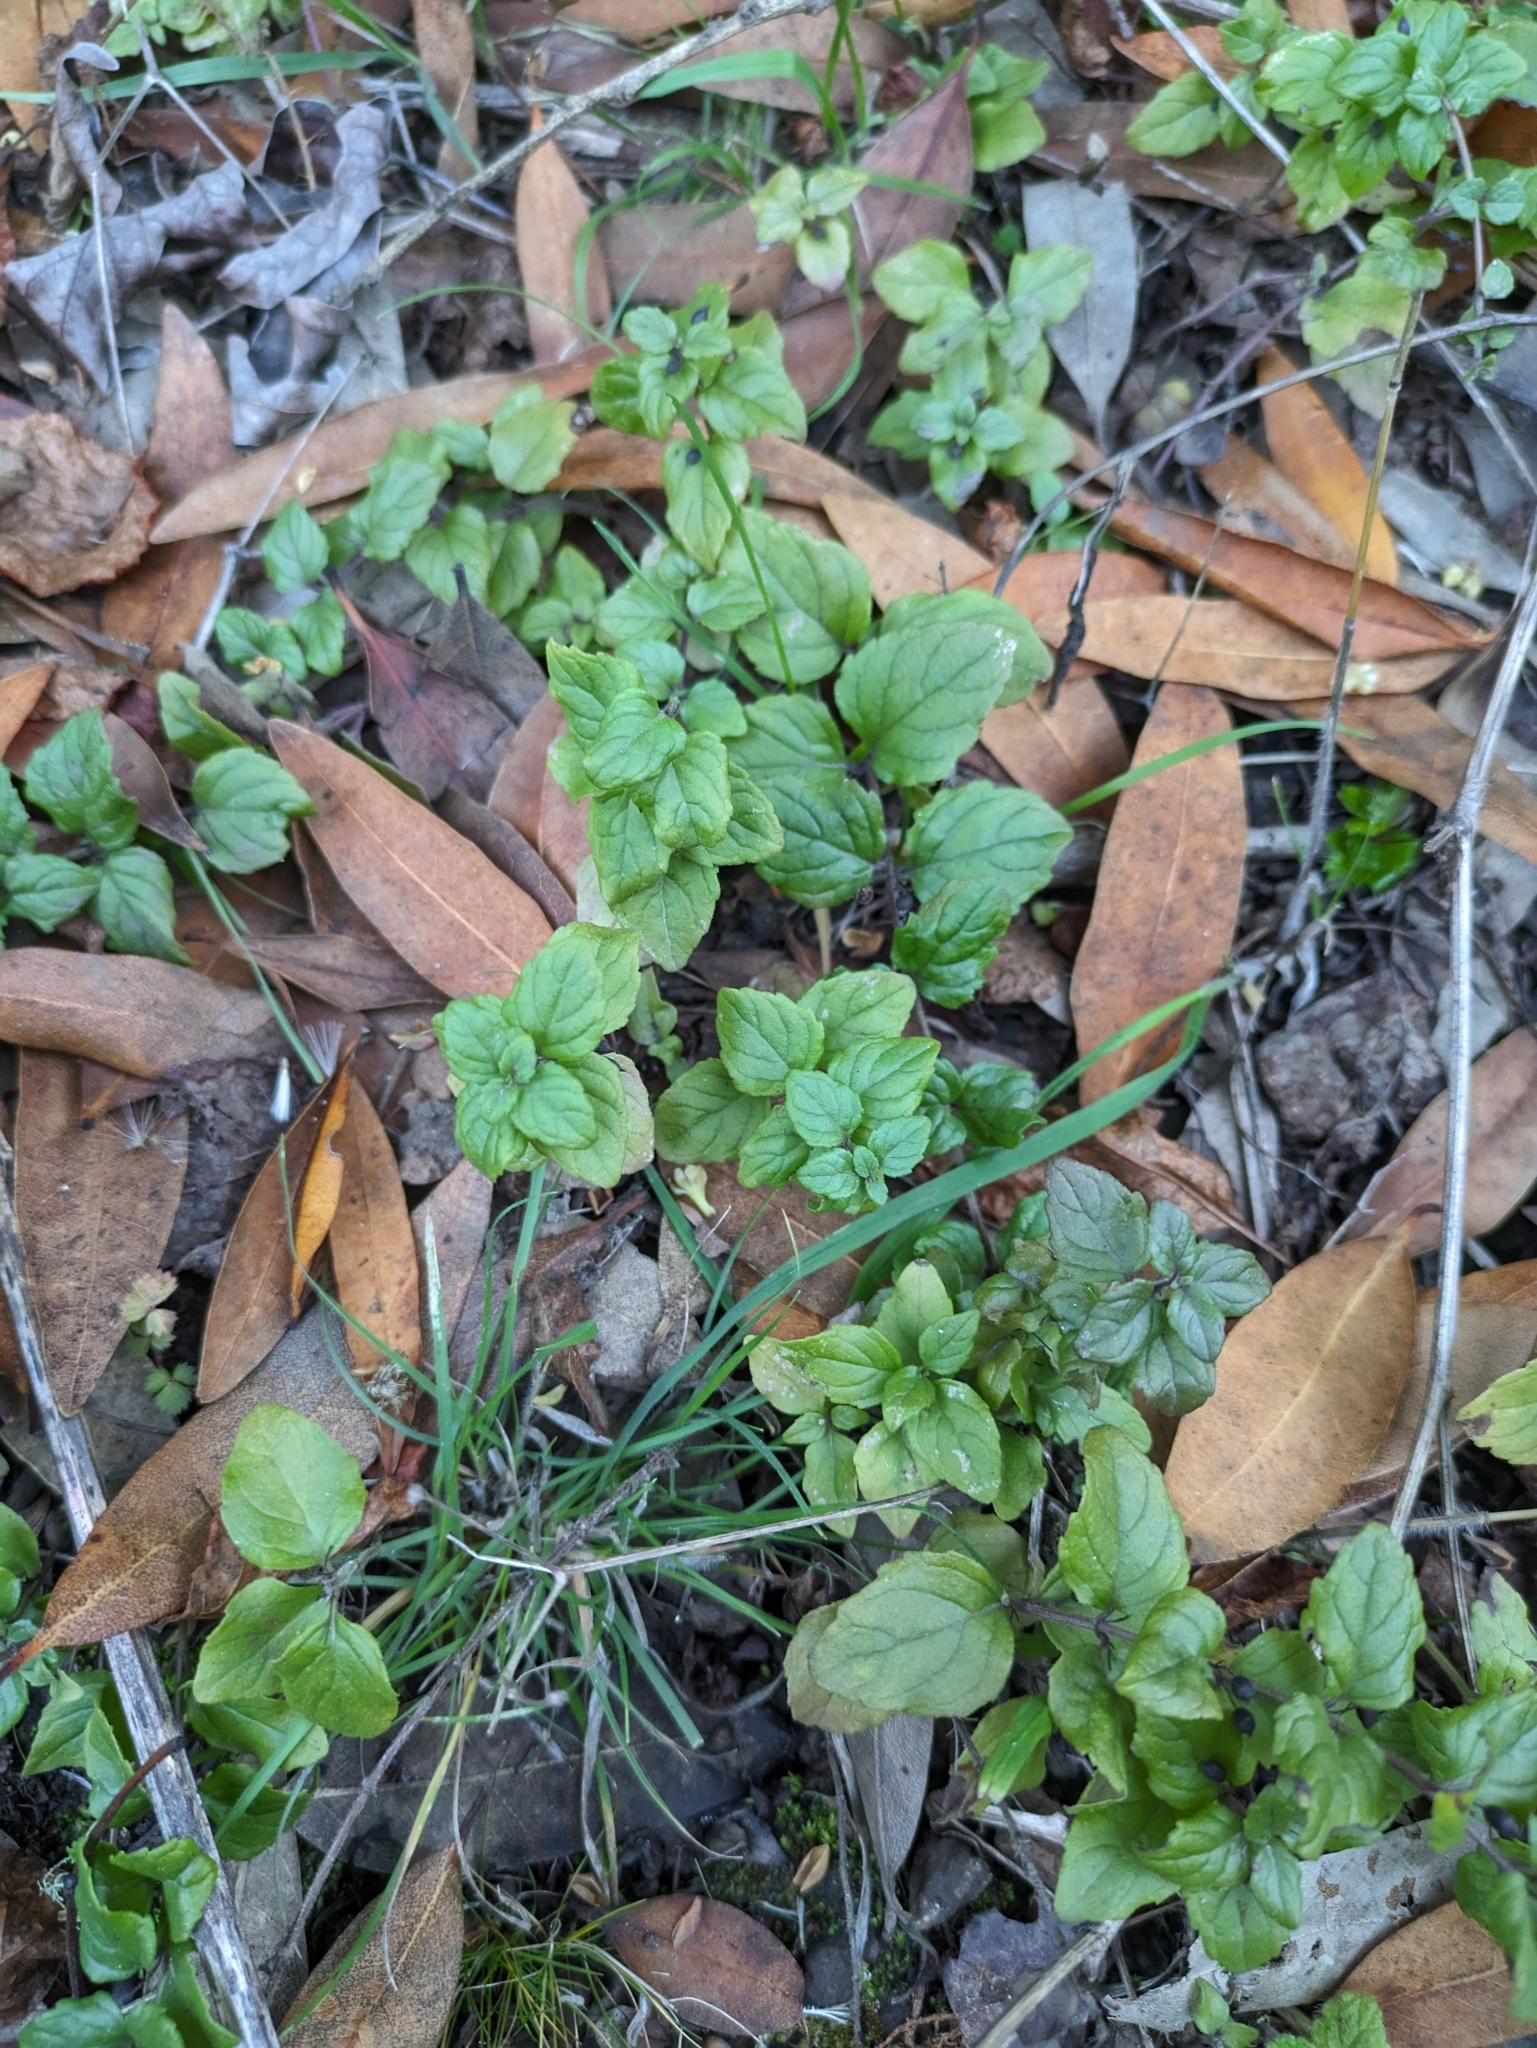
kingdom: Plantae
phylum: Tracheophyta
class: Magnoliopsida
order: Lamiales
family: Lamiaceae
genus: Micromeria
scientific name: Micromeria douglasii
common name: Yerba buena
